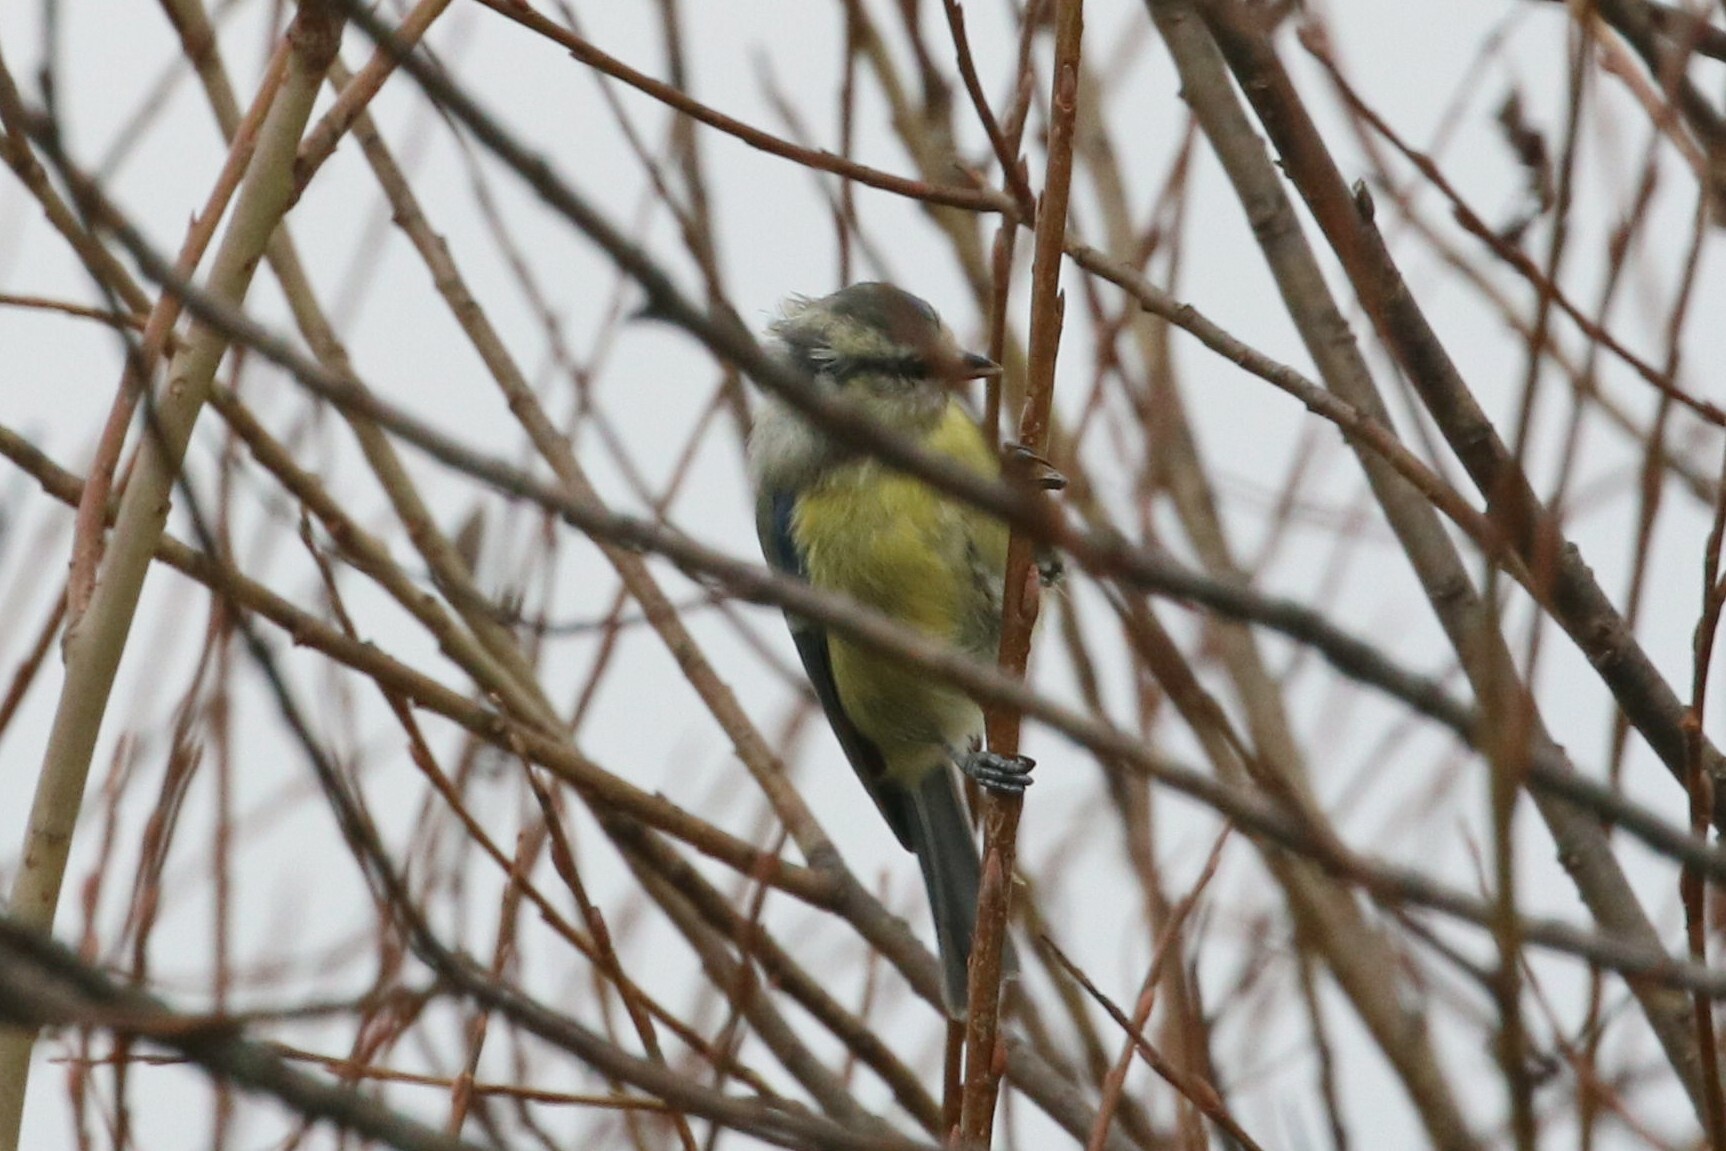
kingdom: Animalia
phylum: Chordata
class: Aves
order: Passeriformes
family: Paridae
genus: Cyanistes
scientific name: Cyanistes caeruleus
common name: Eurasian blue tit
